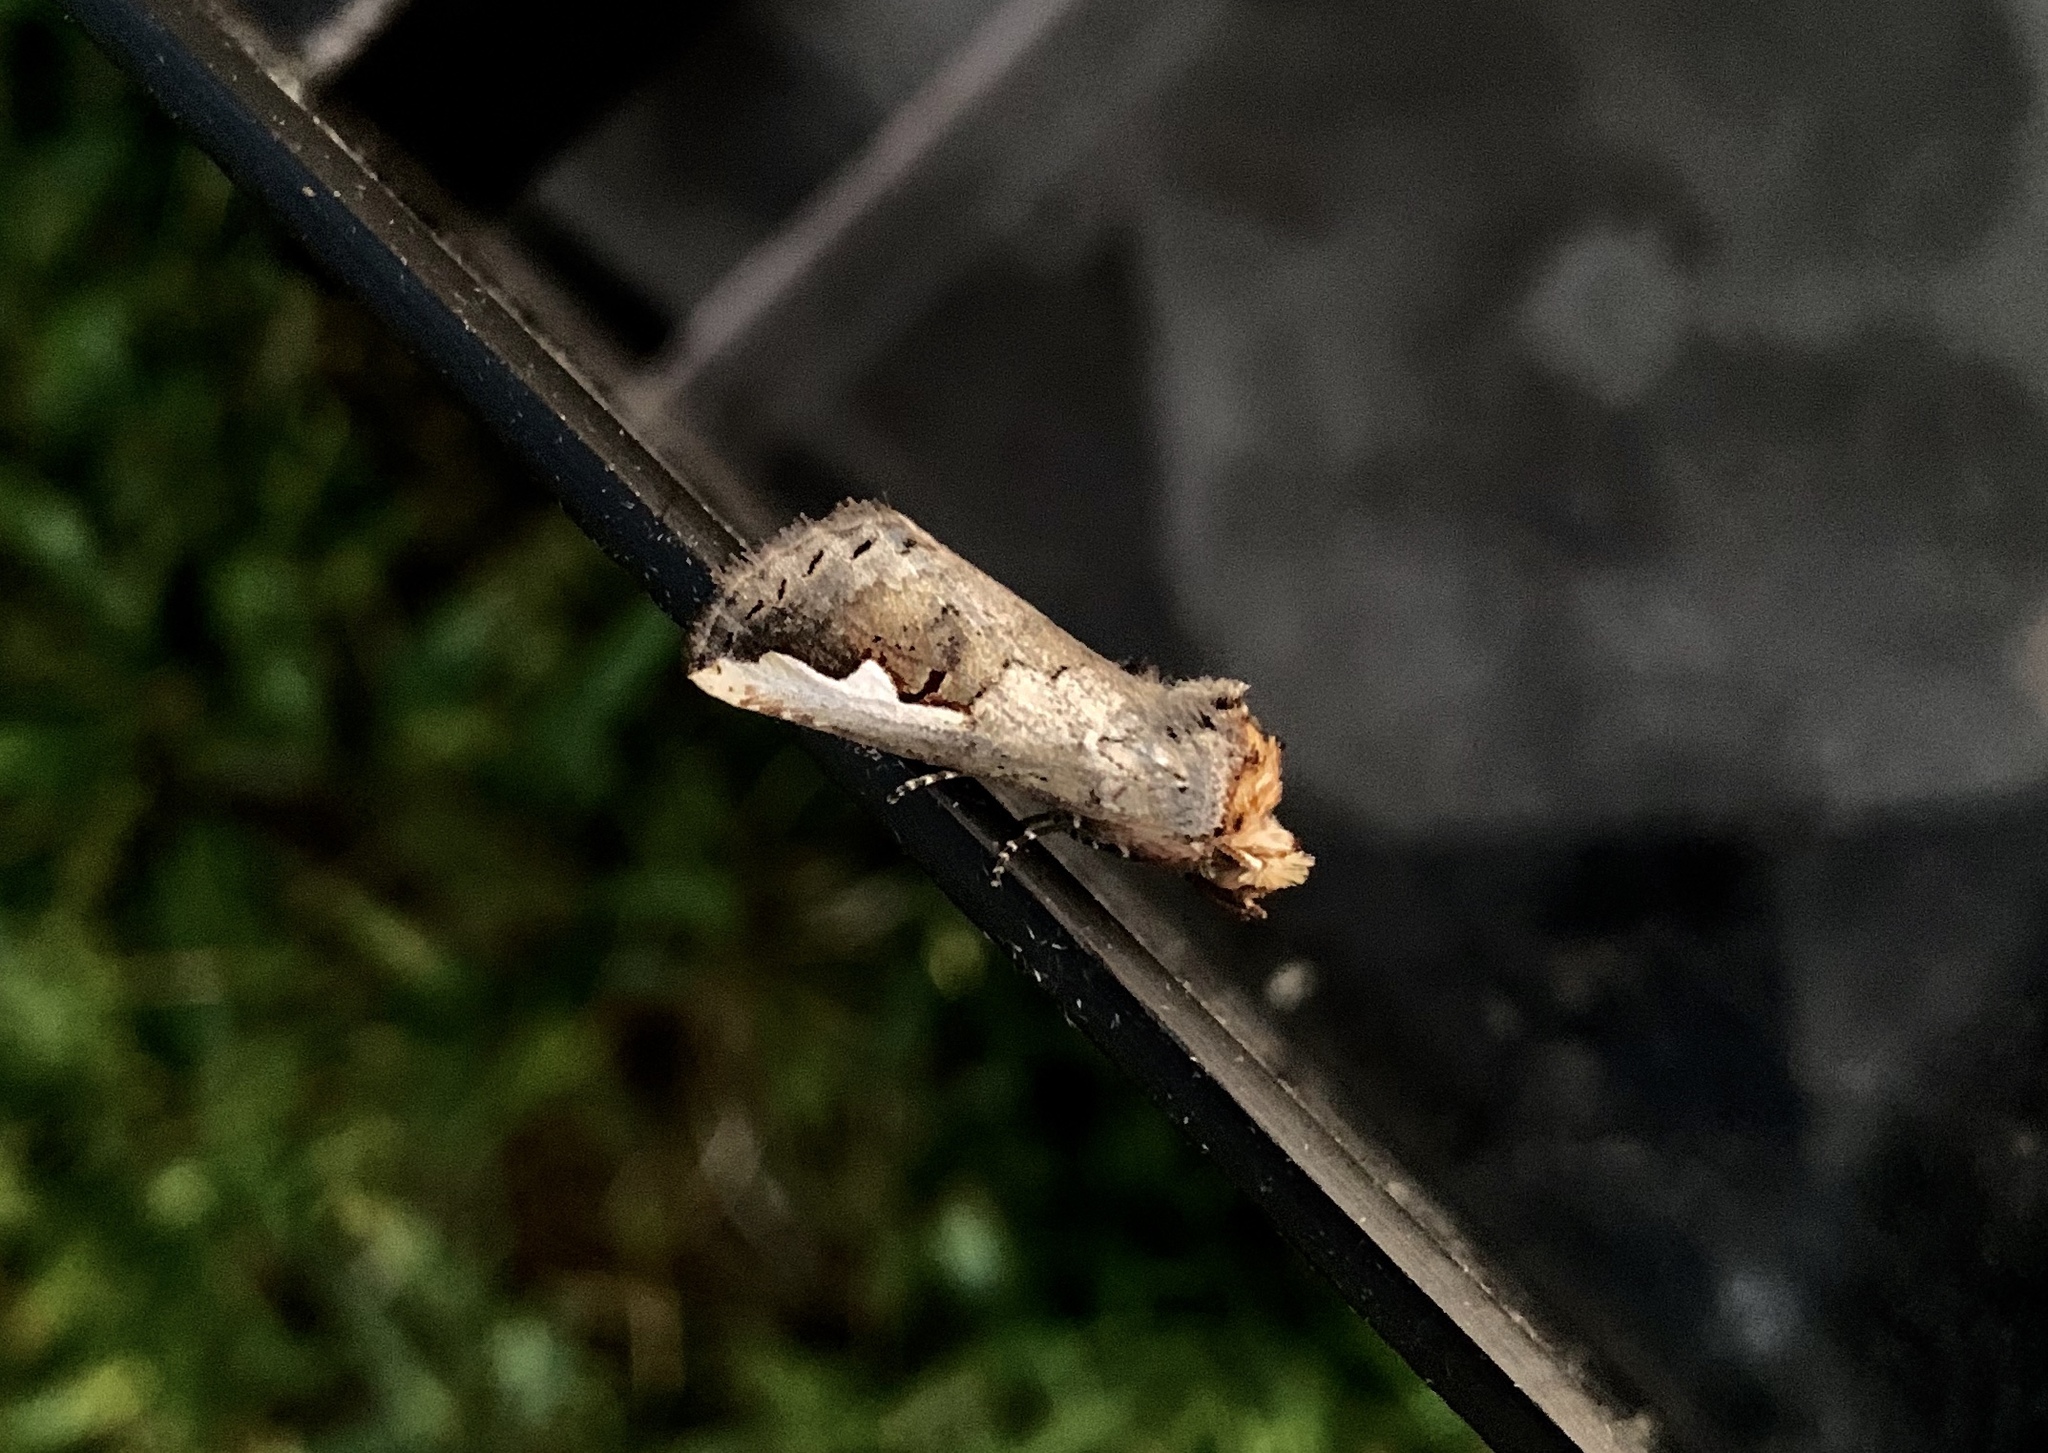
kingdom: Animalia
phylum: Arthropoda
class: Insecta
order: Lepidoptera
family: Notodontidae
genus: Symmerista
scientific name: Symmerista albifrons
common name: White-headed prominent
